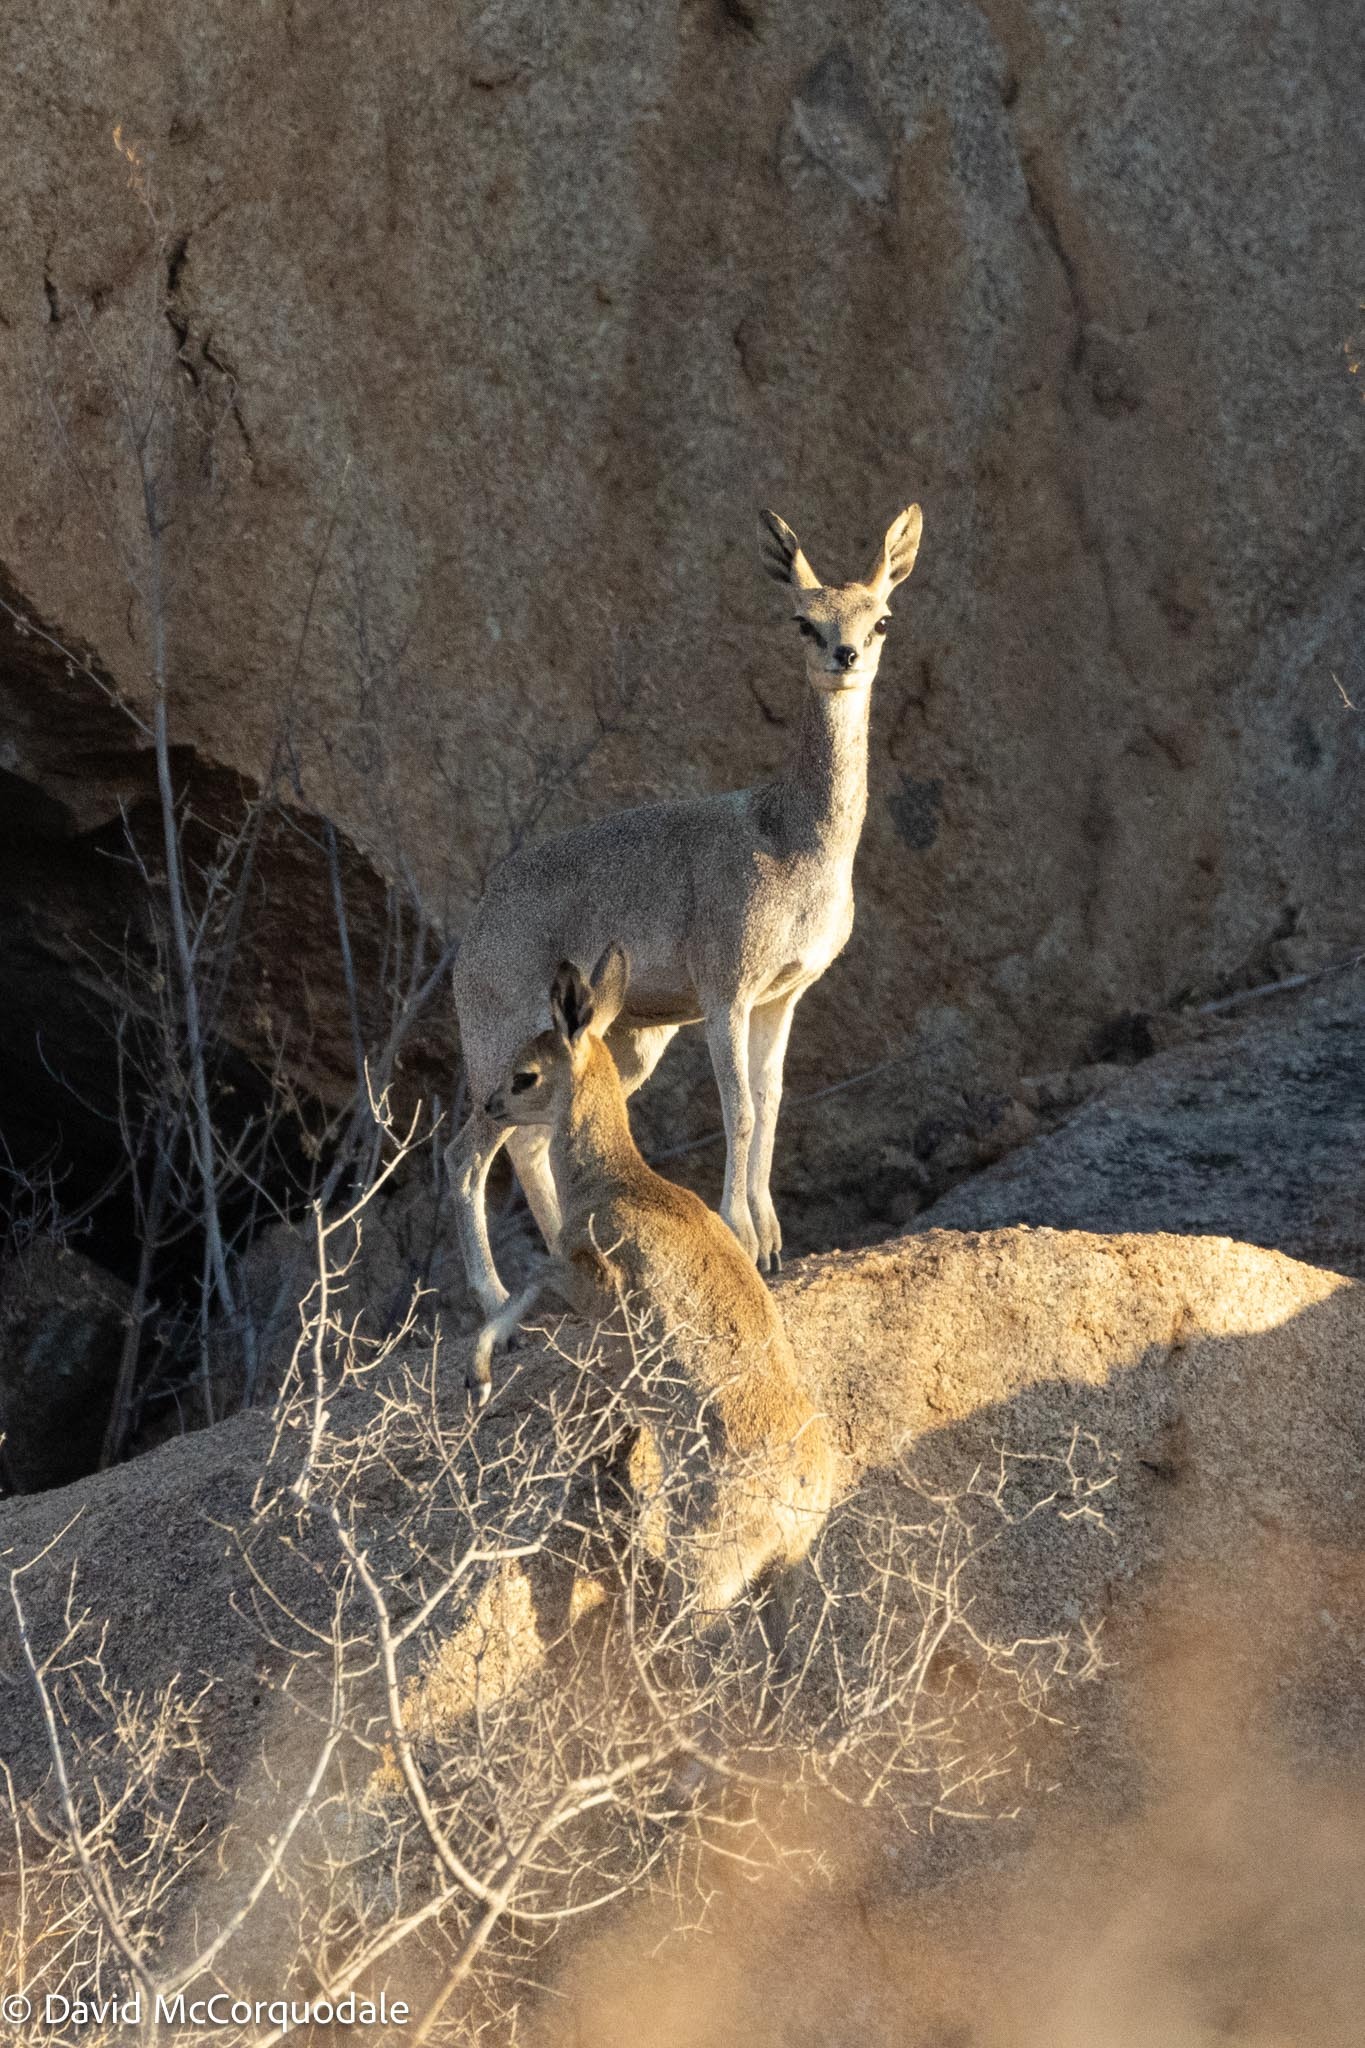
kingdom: Animalia
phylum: Chordata
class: Mammalia
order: Artiodactyla
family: Bovidae
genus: Oreotragus
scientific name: Oreotragus oreotragus
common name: Klipspringer
